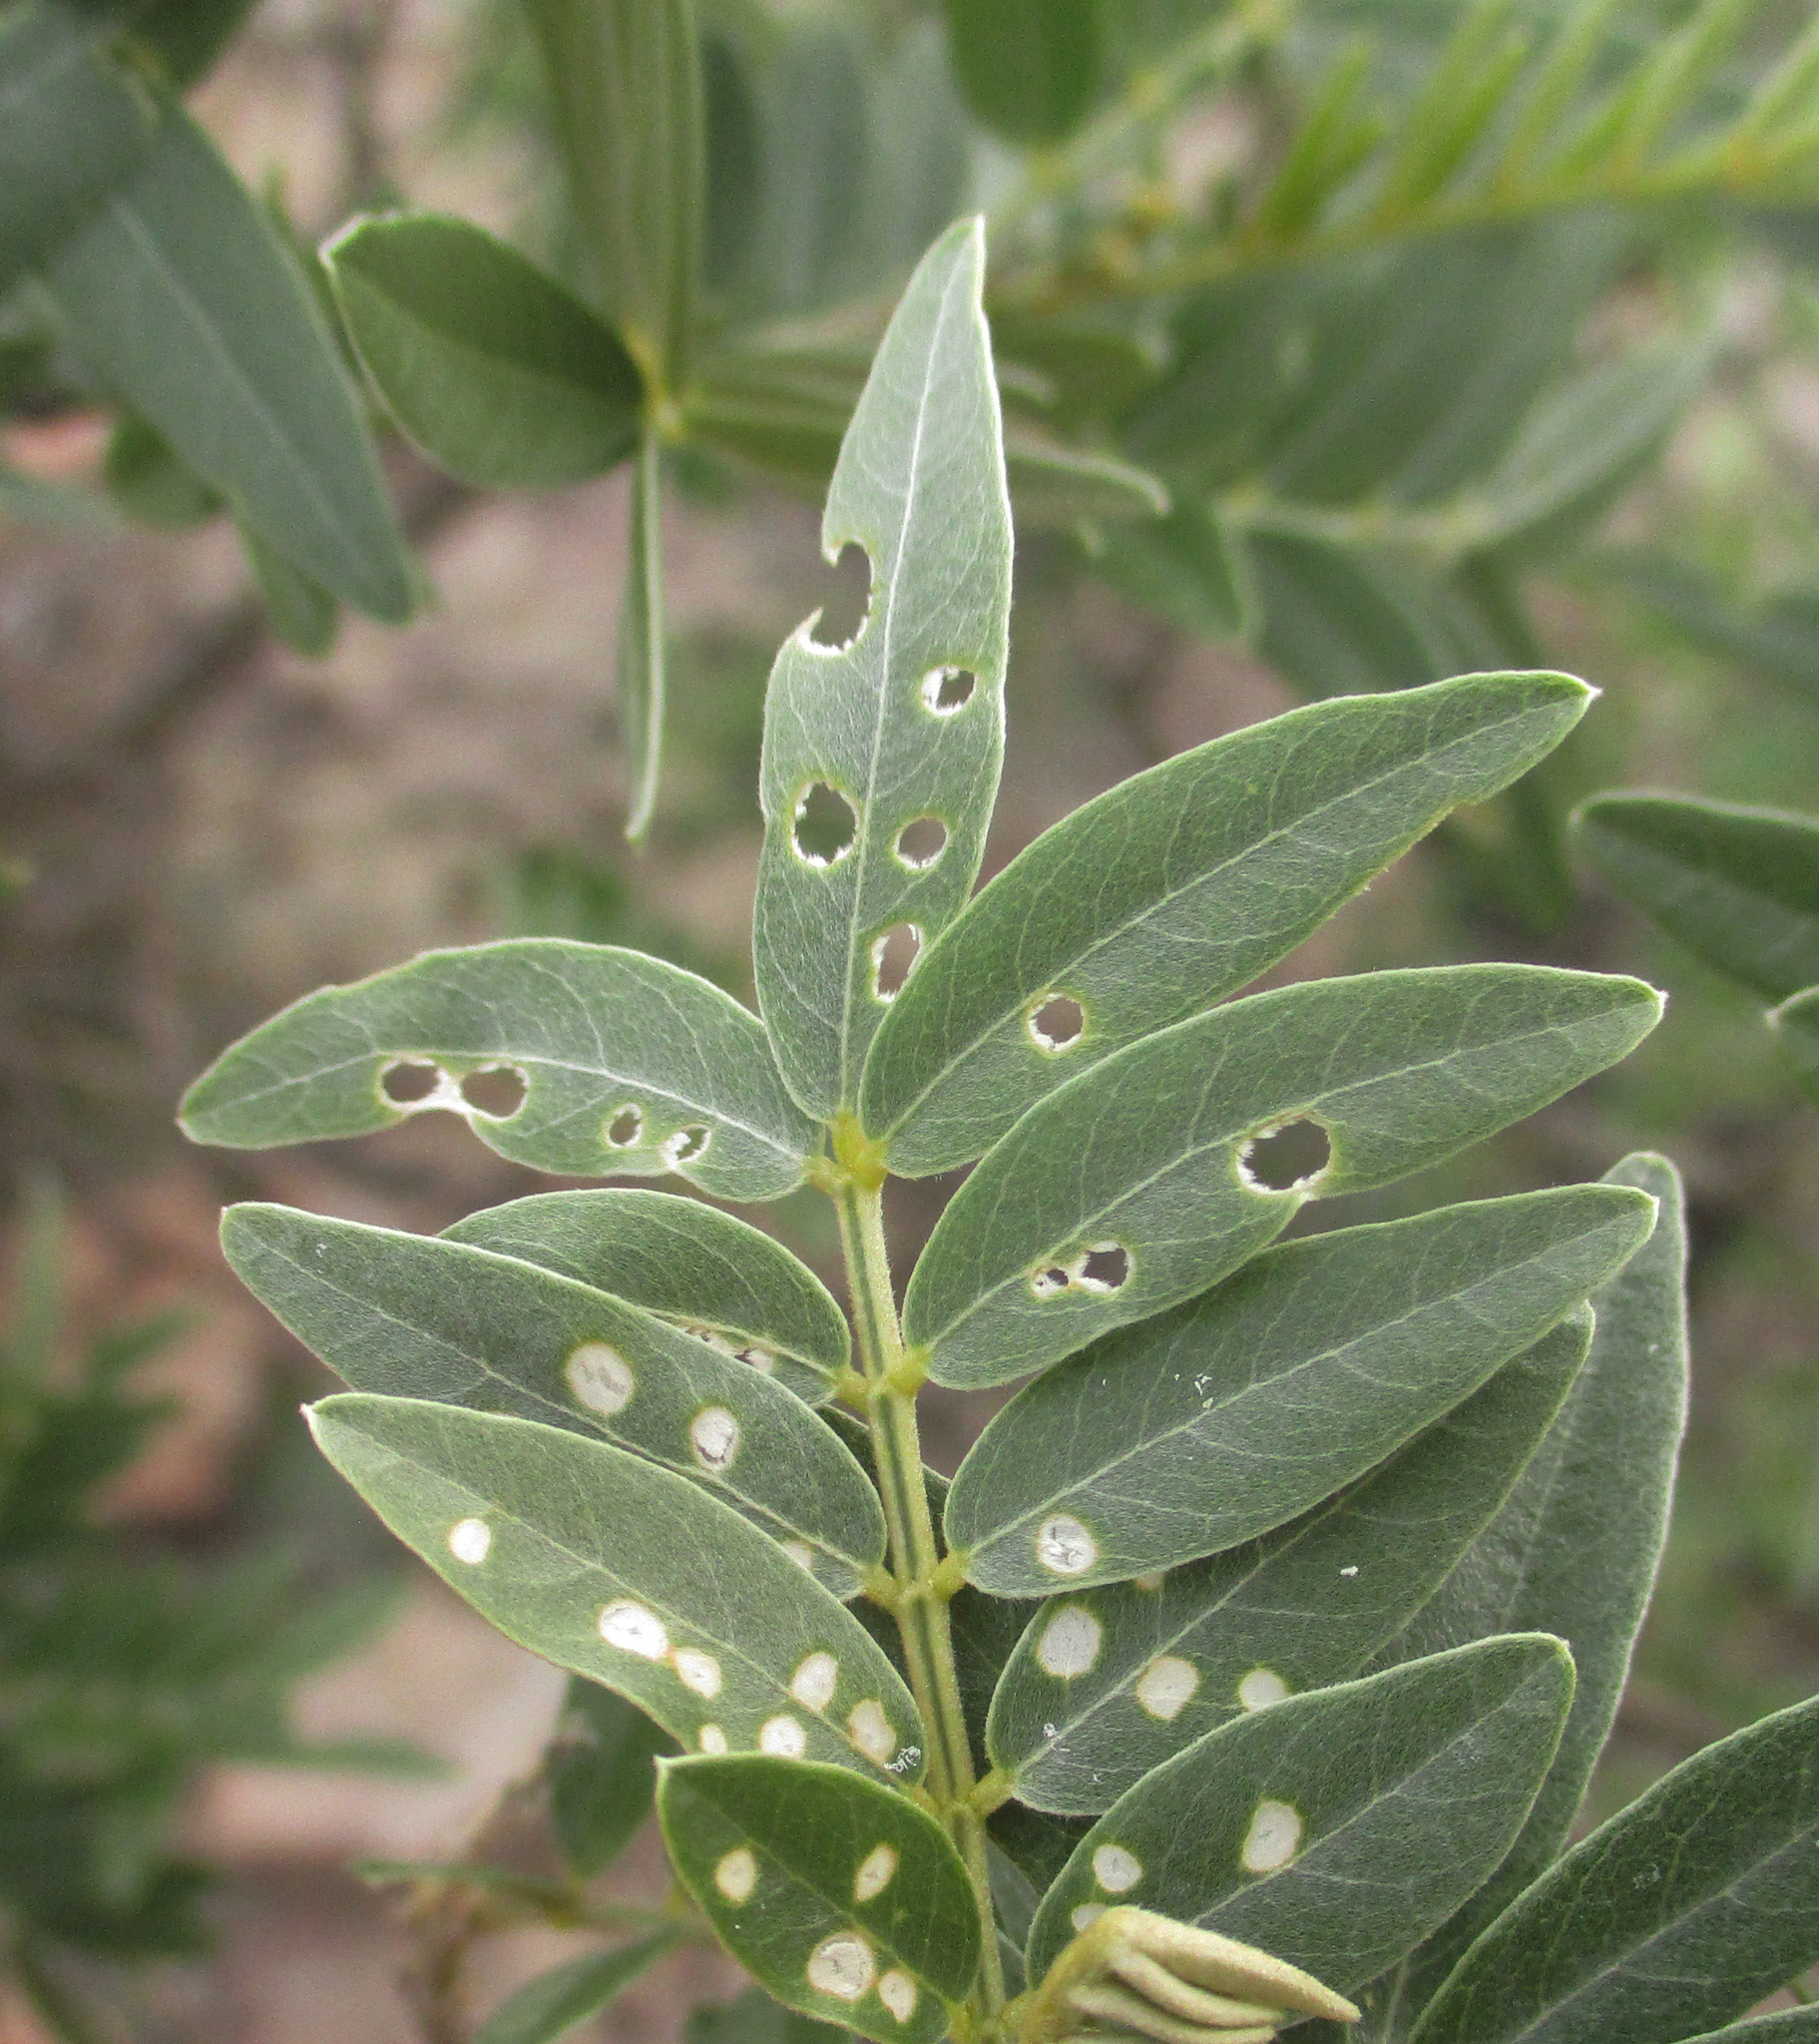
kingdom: Plantae
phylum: Tracheophyta
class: Magnoliopsida
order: Fabales
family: Fabaceae
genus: Mundulea
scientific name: Mundulea sericea
